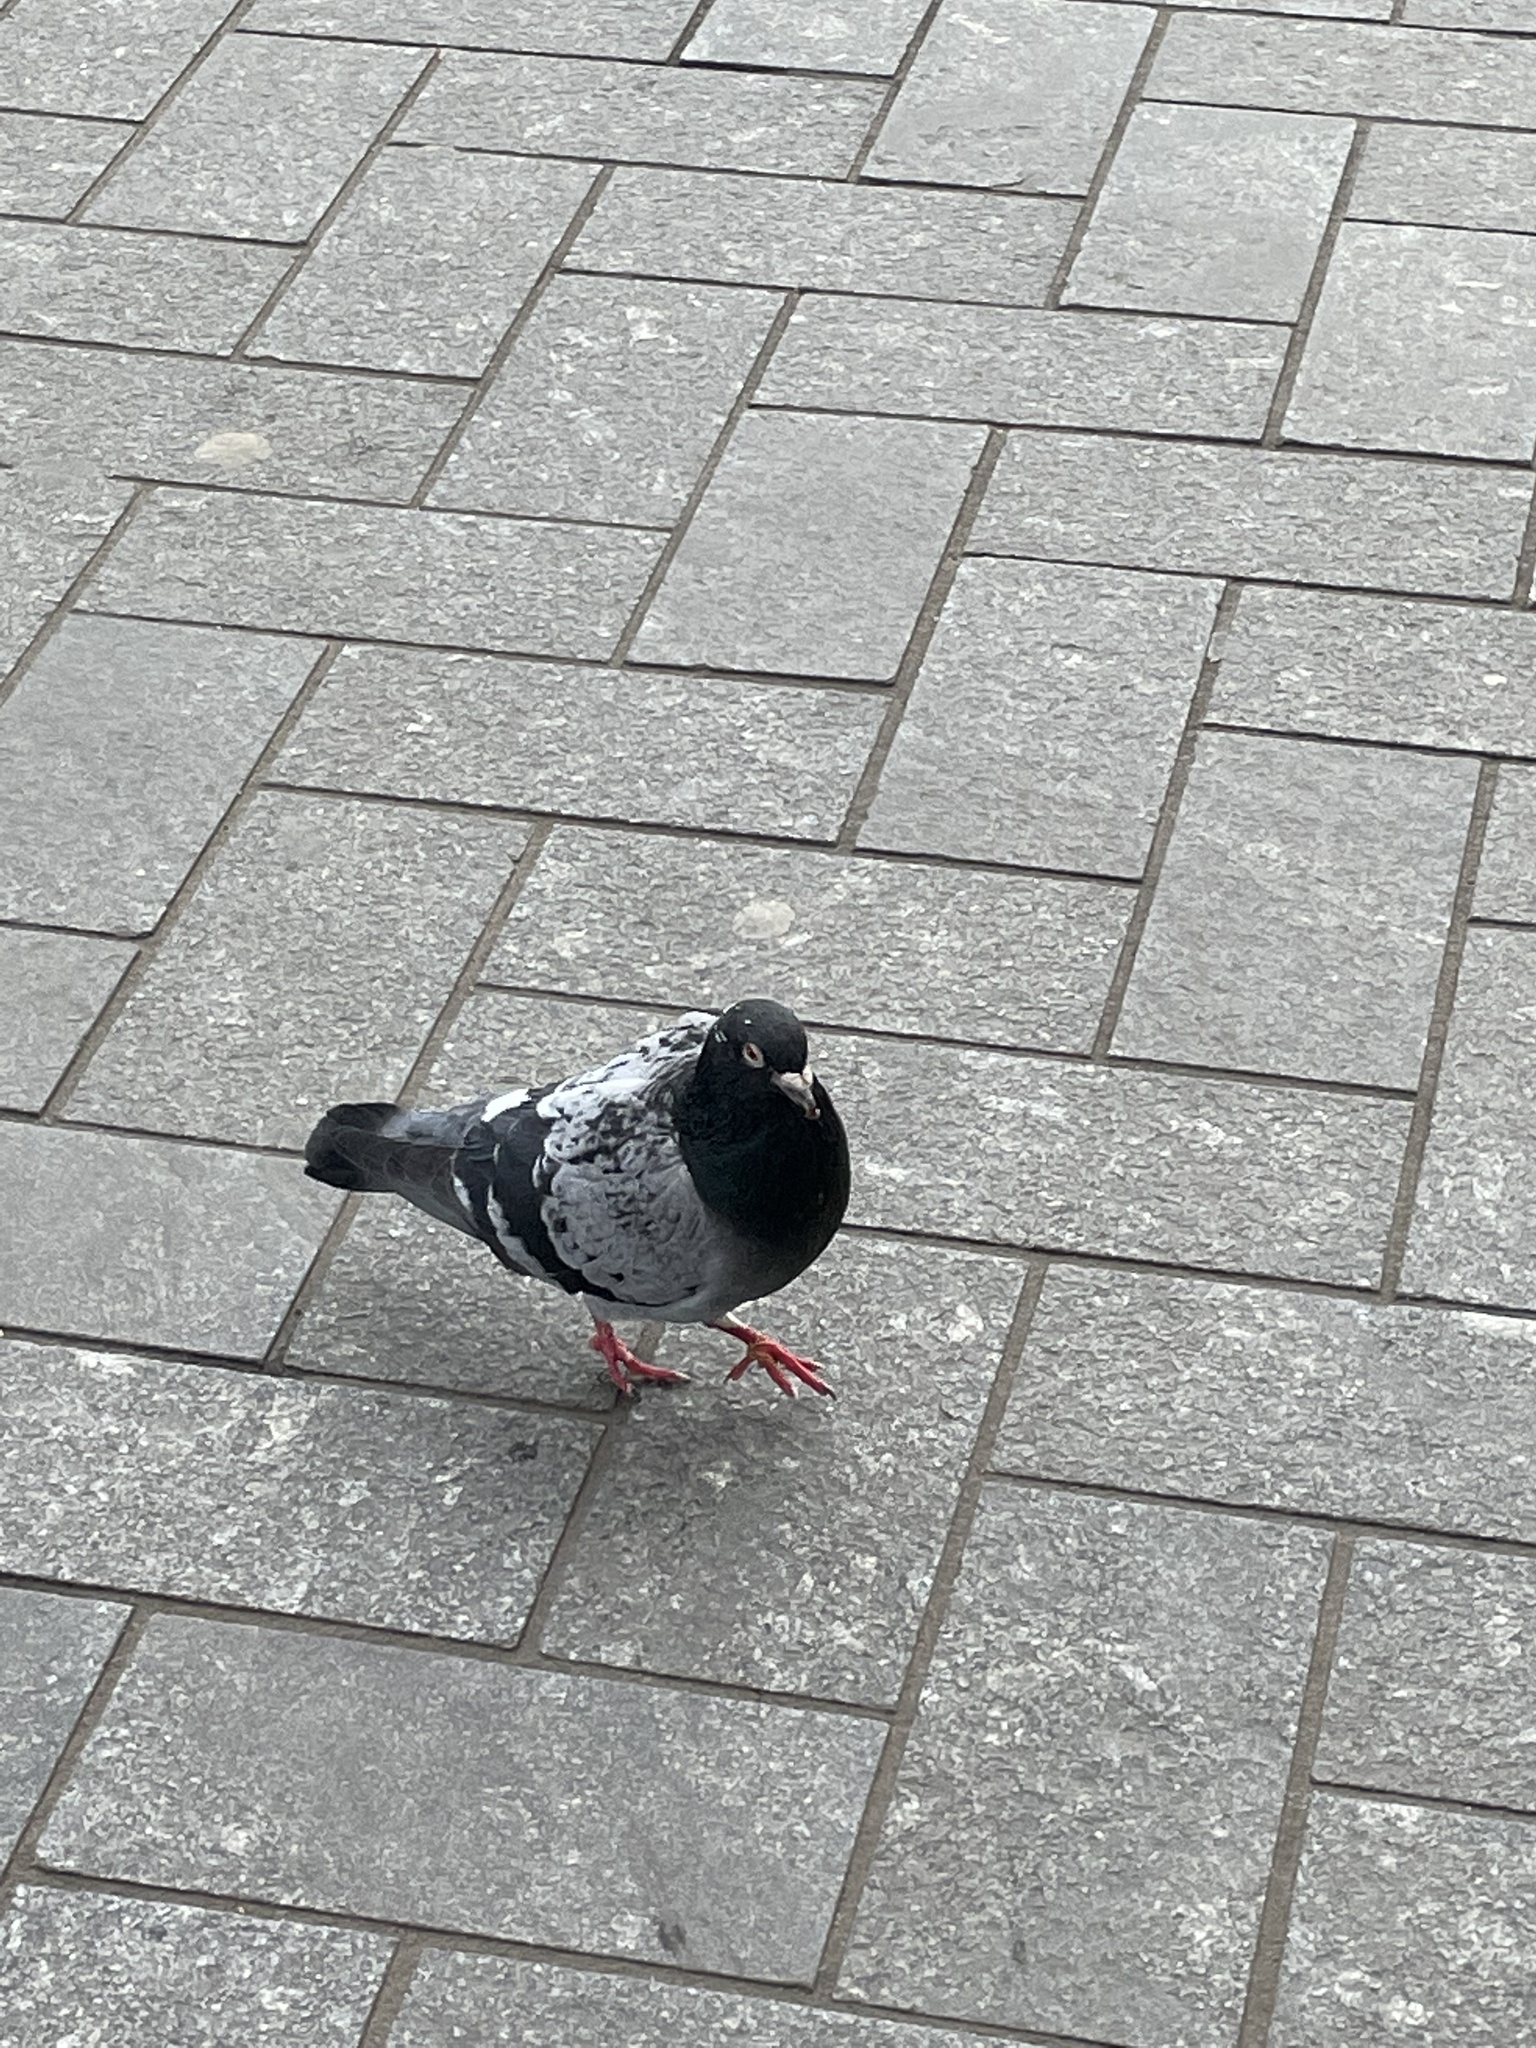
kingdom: Animalia
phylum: Chordata
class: Aves
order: Columbiformes
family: Columbidae
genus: Columba
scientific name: Columba livia
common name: Rock pigeon
